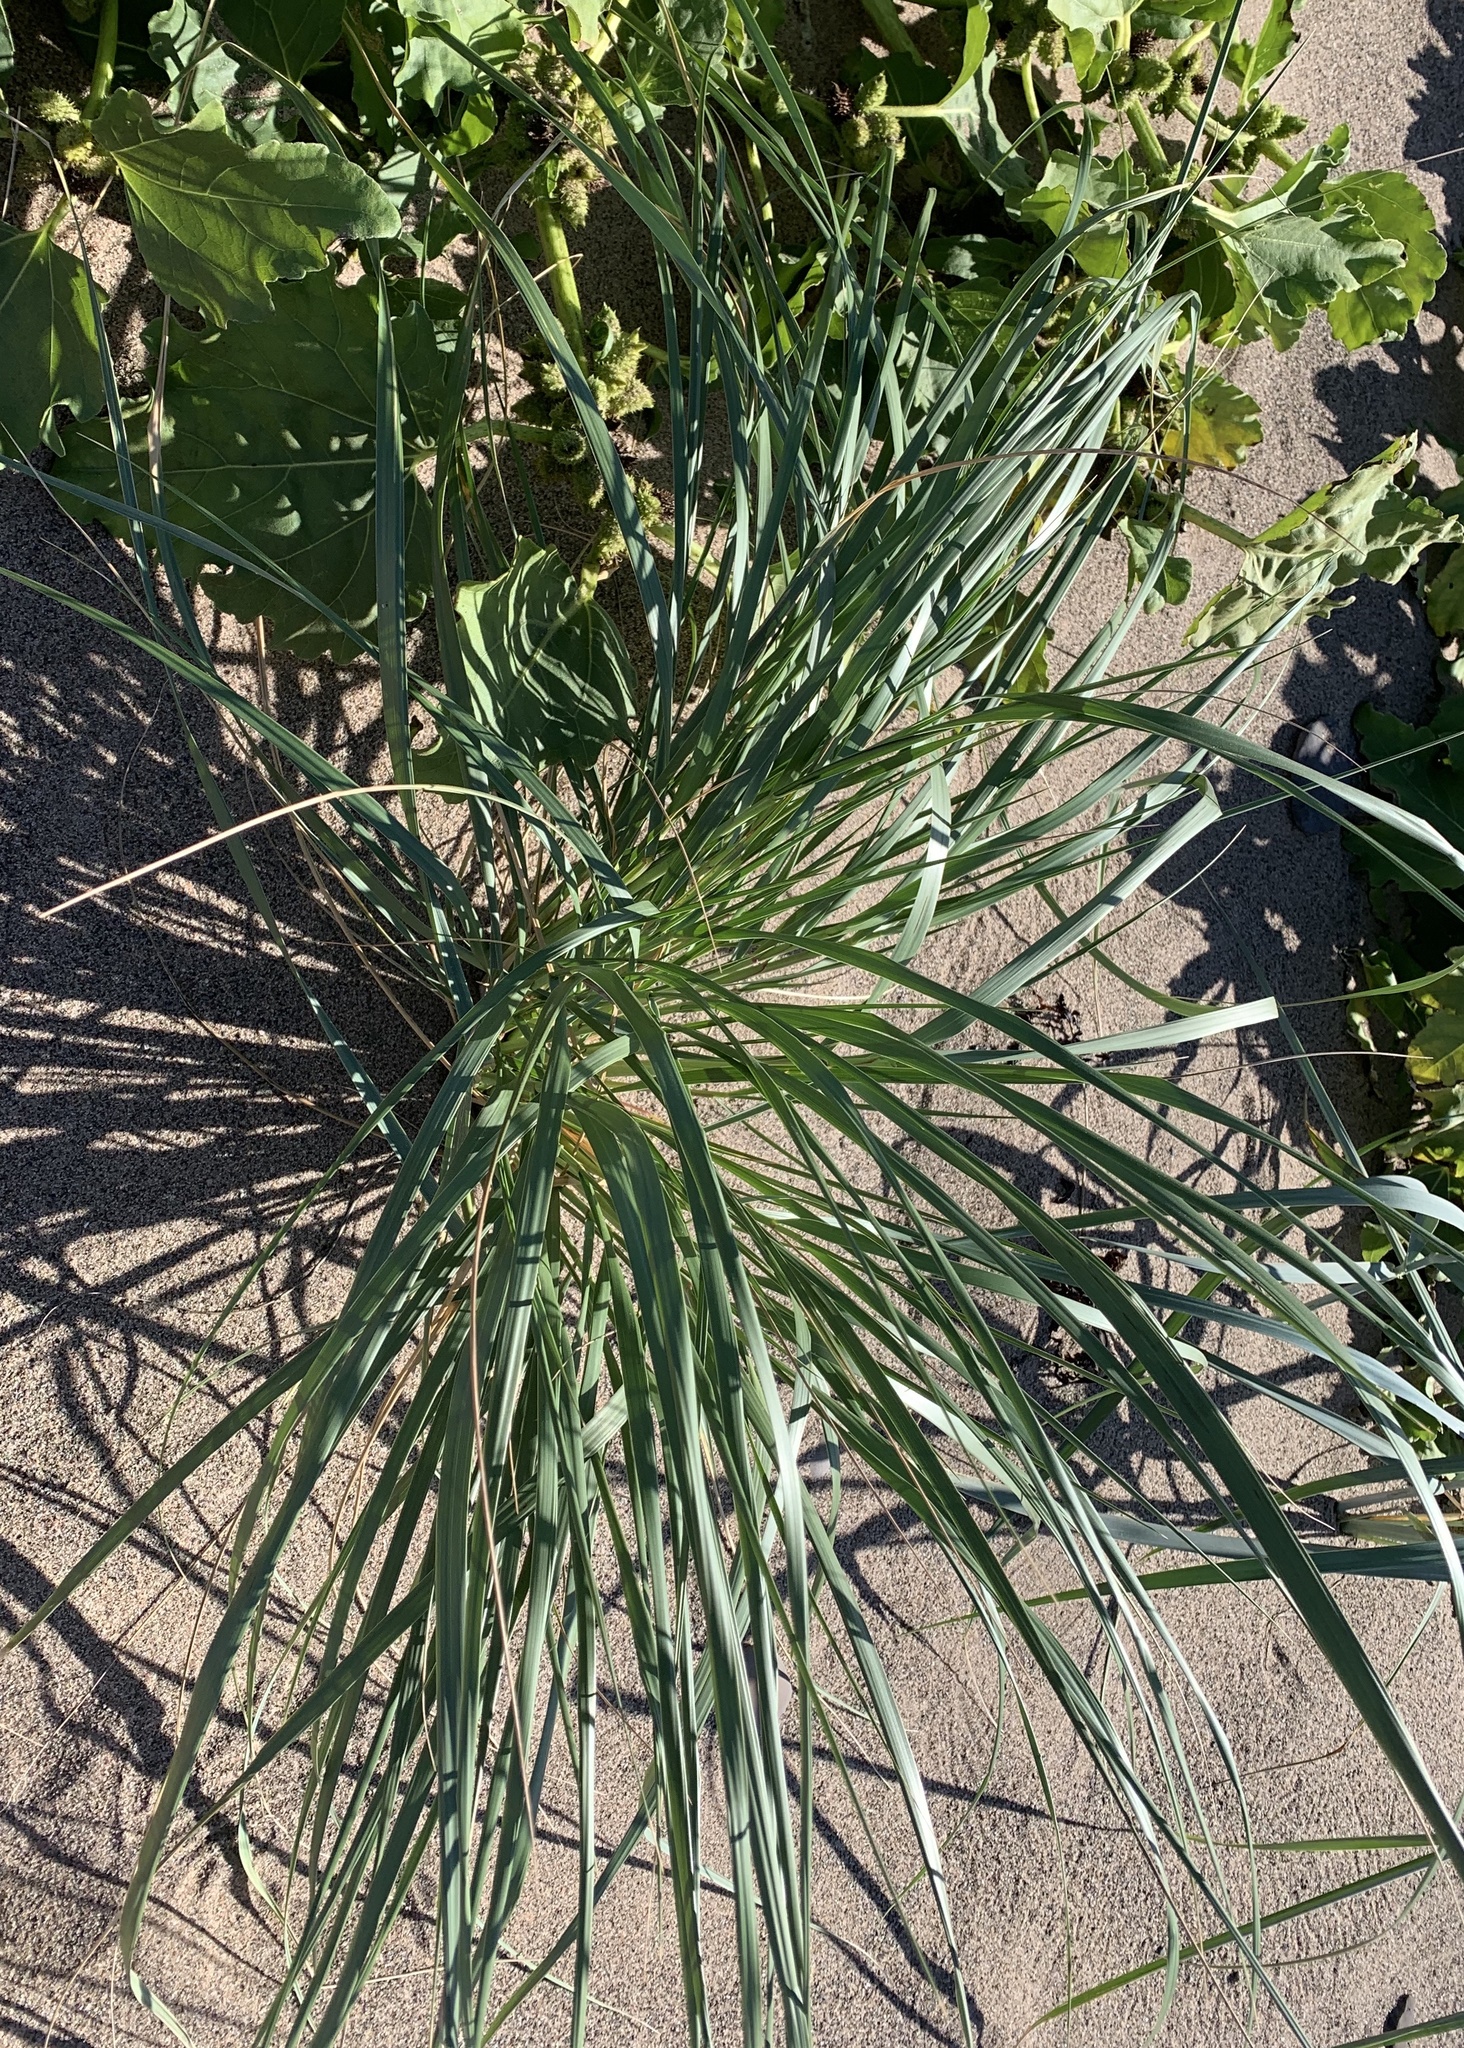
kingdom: Plantae
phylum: Tracheophyta
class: Liliopsida
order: Poales
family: Poaceae
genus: Calamagrostis
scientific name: Calamagrostis breviligulata
